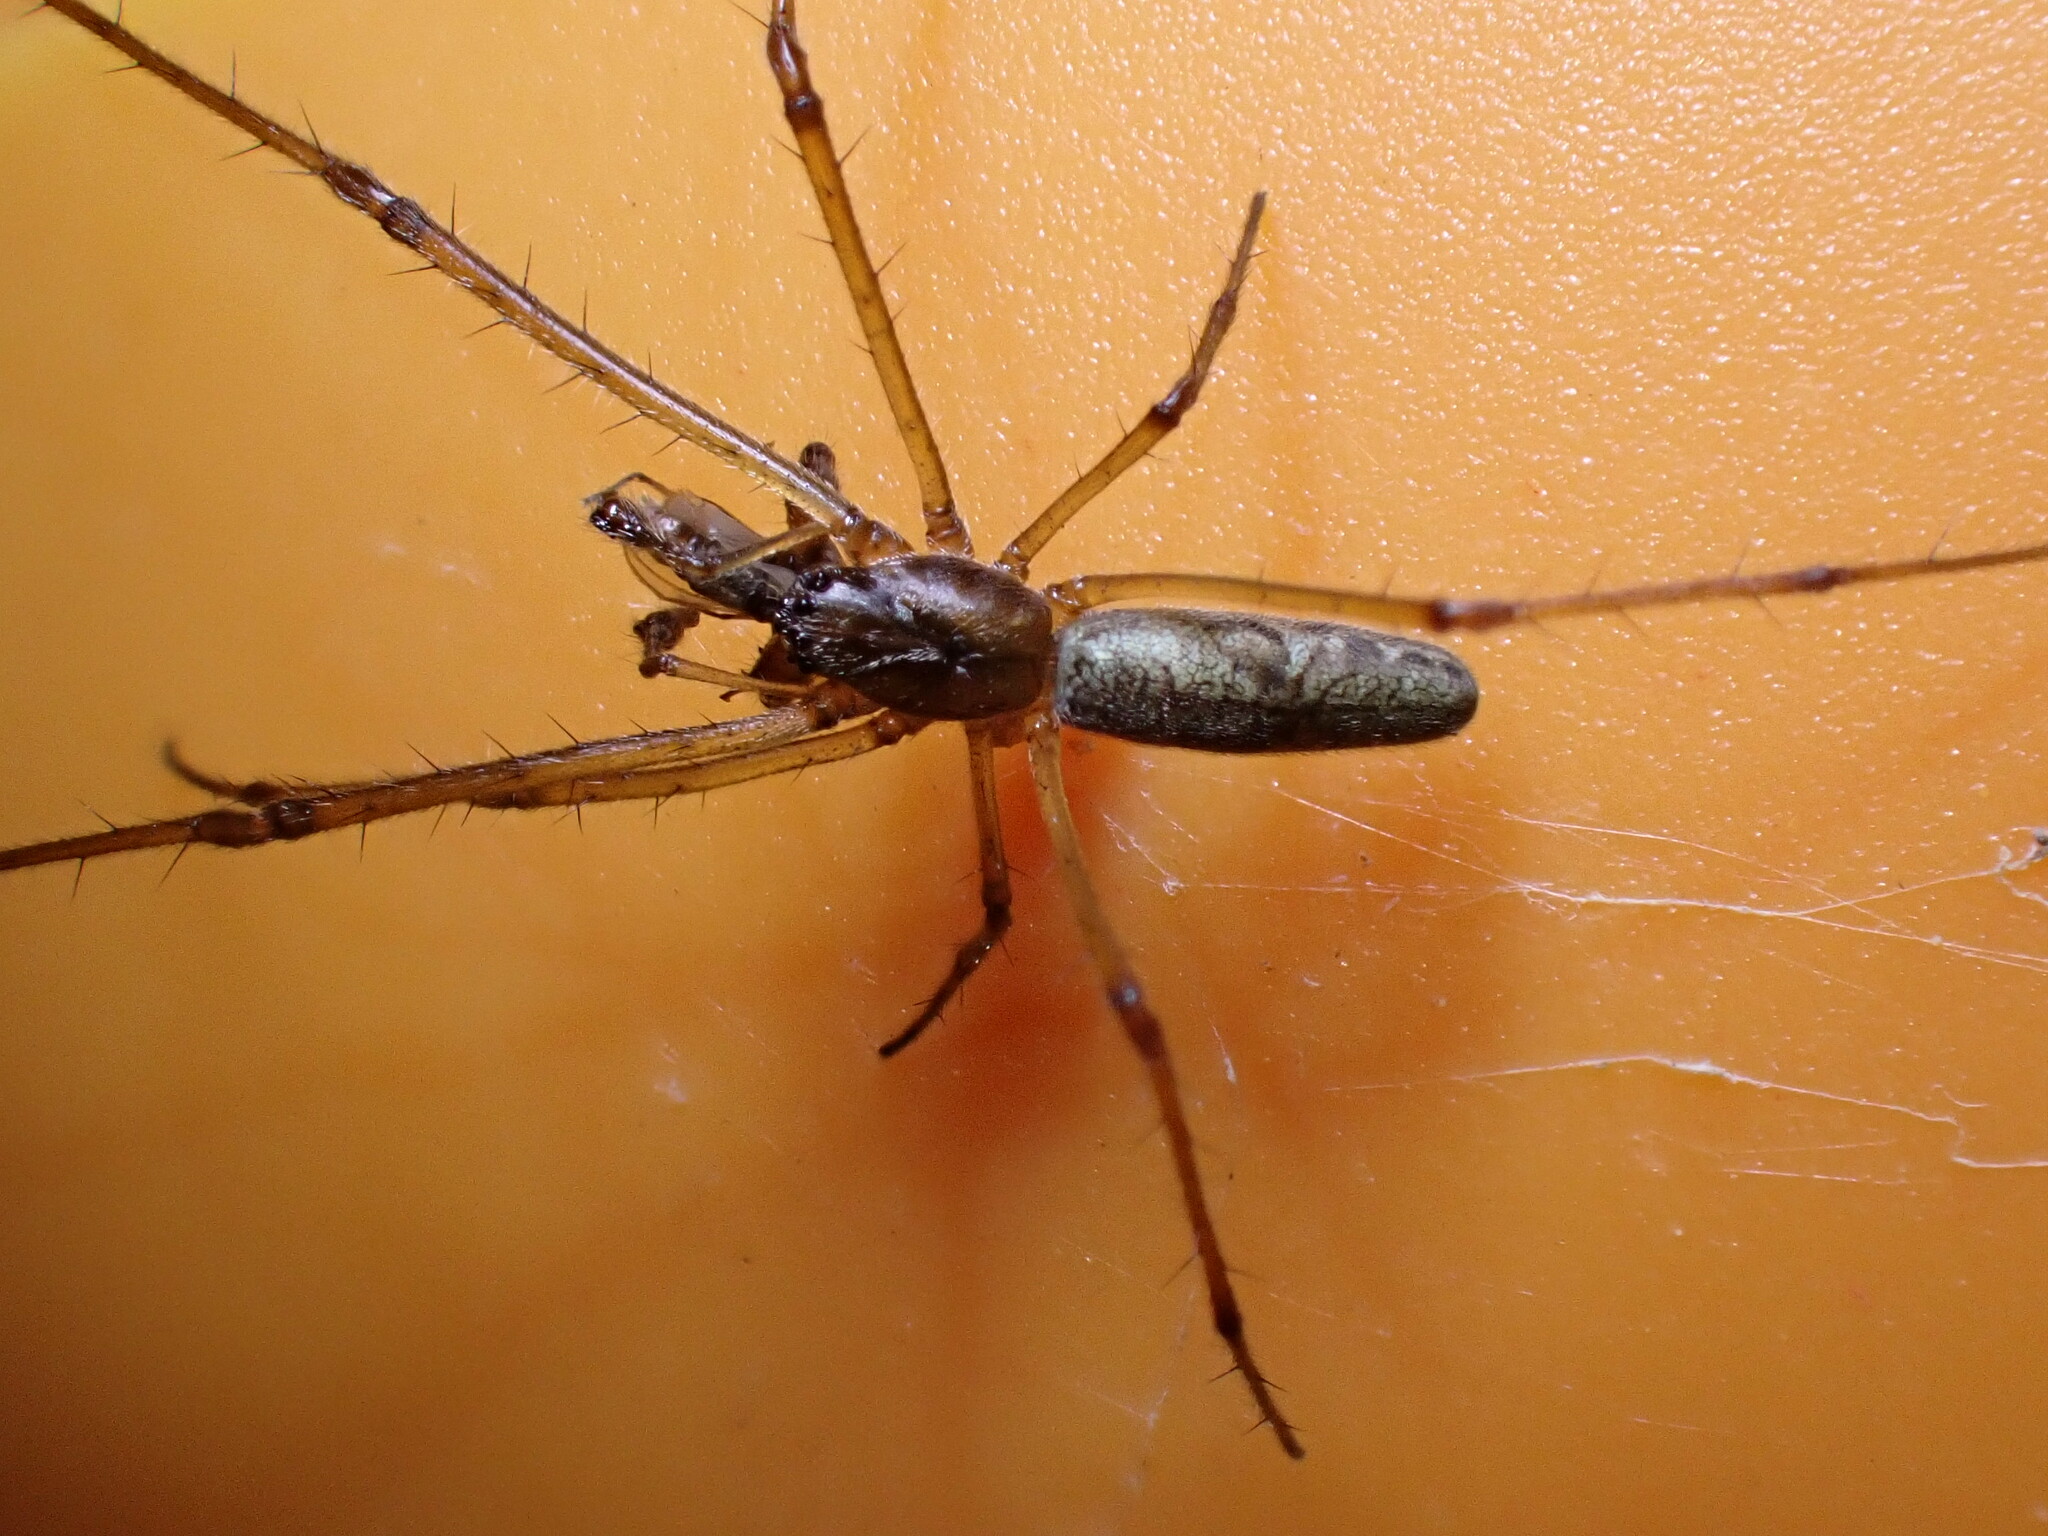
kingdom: Animalia
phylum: Arthropoda
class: Arachnida
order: Araneae
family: Tetragnathidae
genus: Tetragnatha
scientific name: Tetragnatha nigrita
